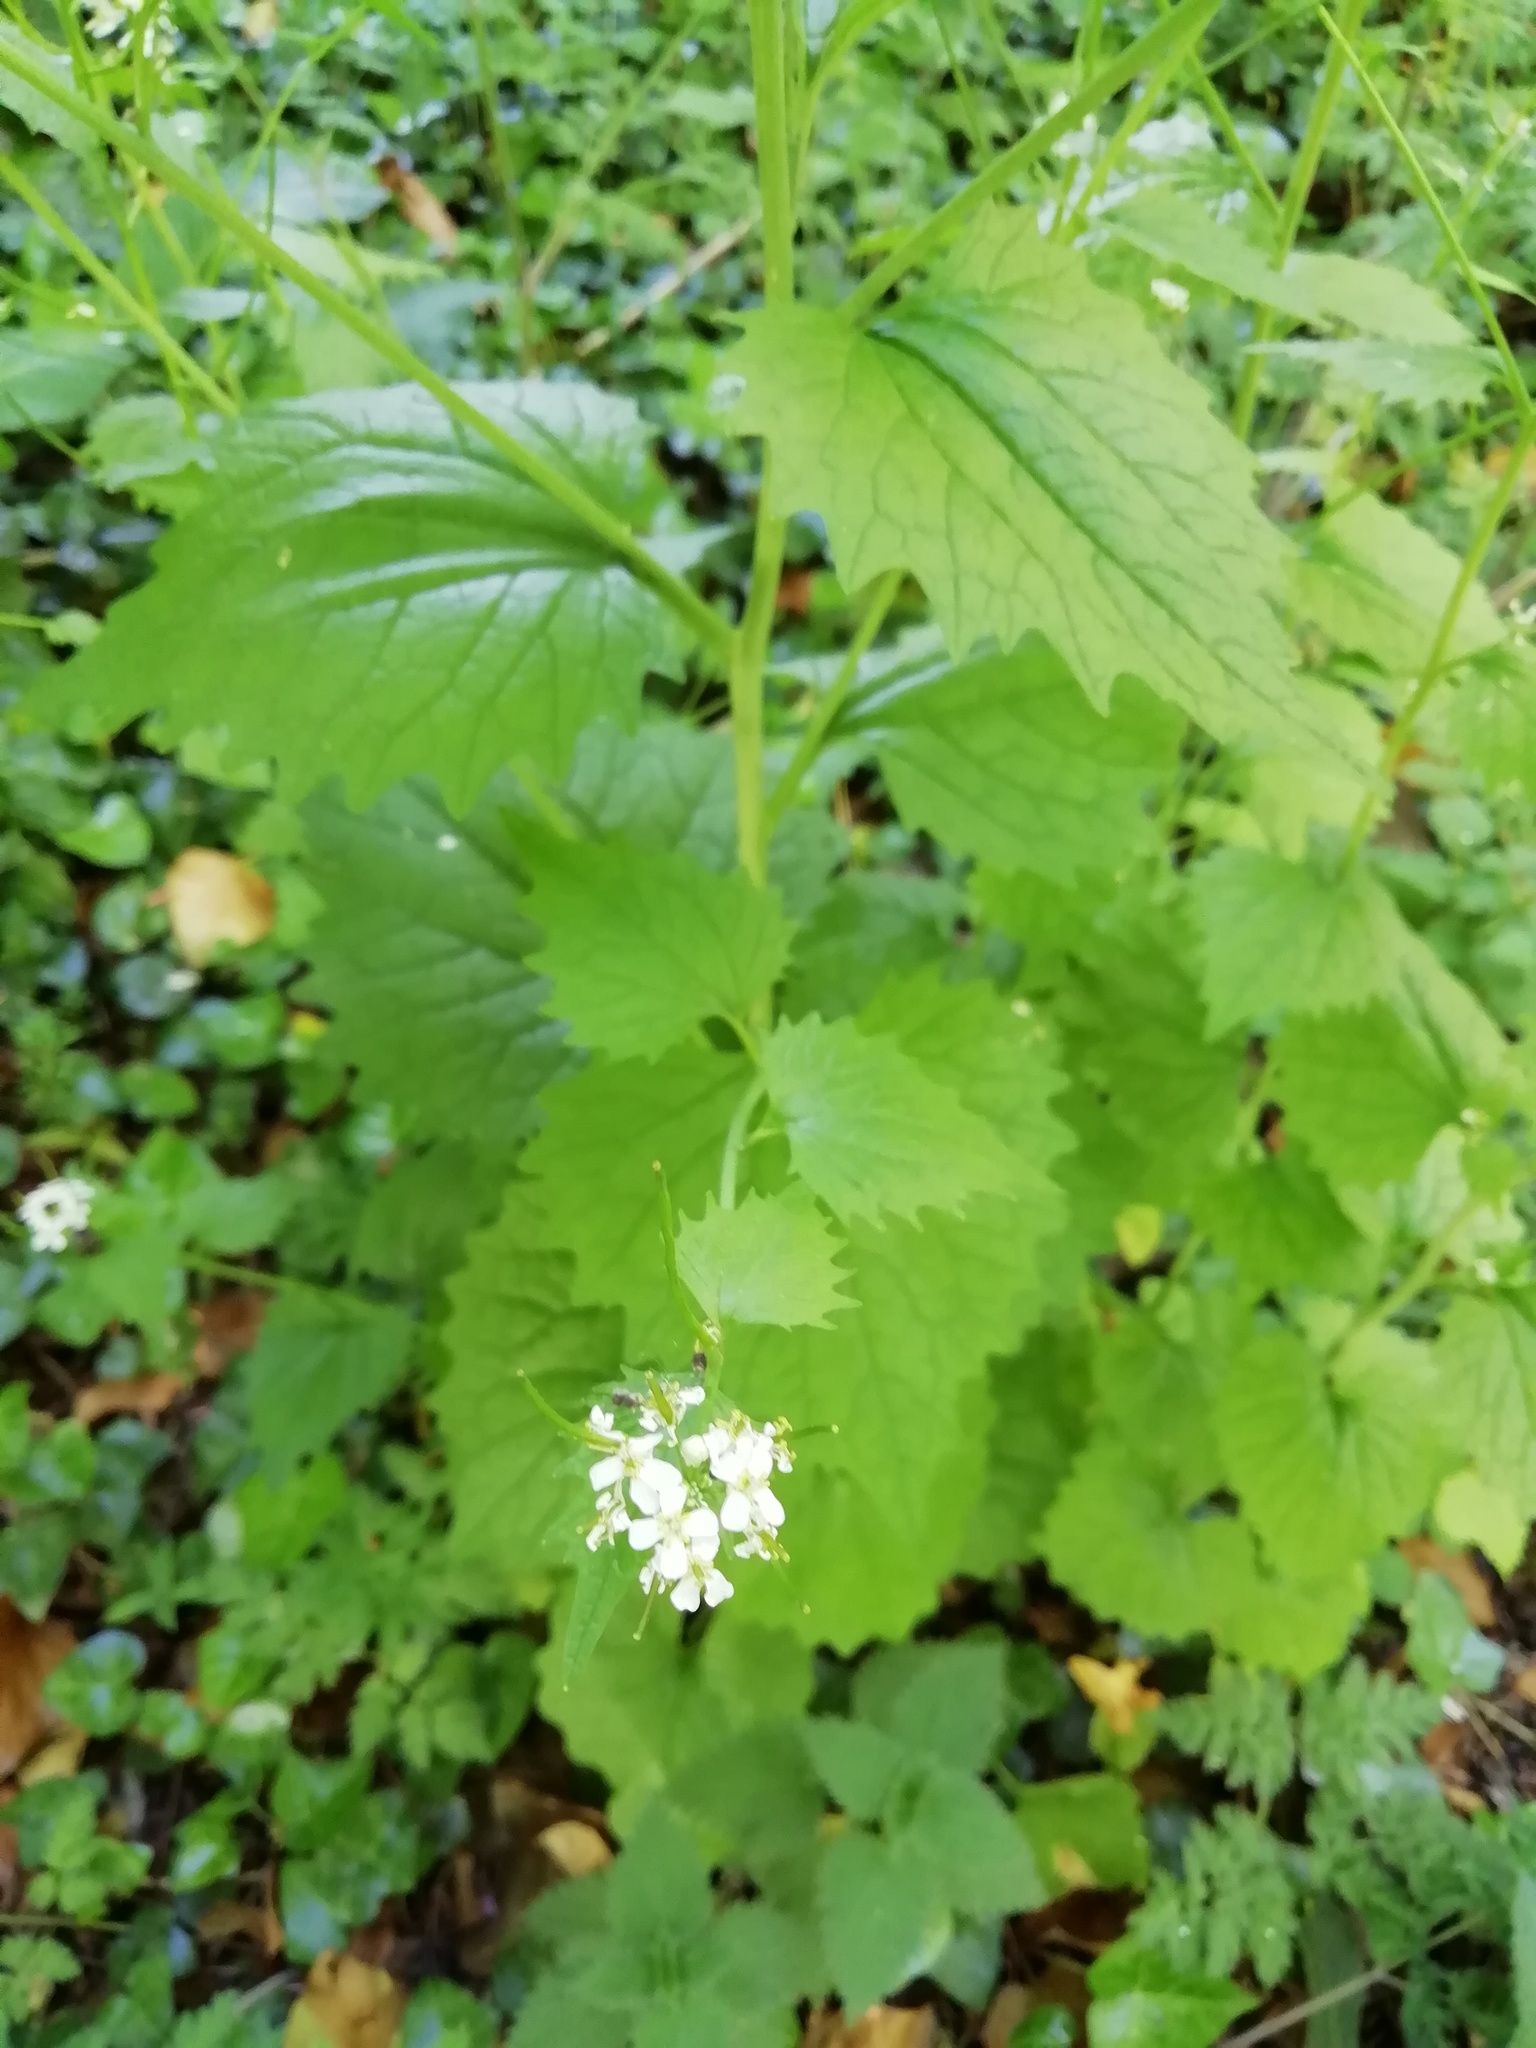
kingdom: Plantae
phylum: Tracheophyta
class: Magnoliopsida
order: Brassicales
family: Brassicaceae
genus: Alliaria
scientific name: Alliaria petiolata
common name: Garlic mustard
